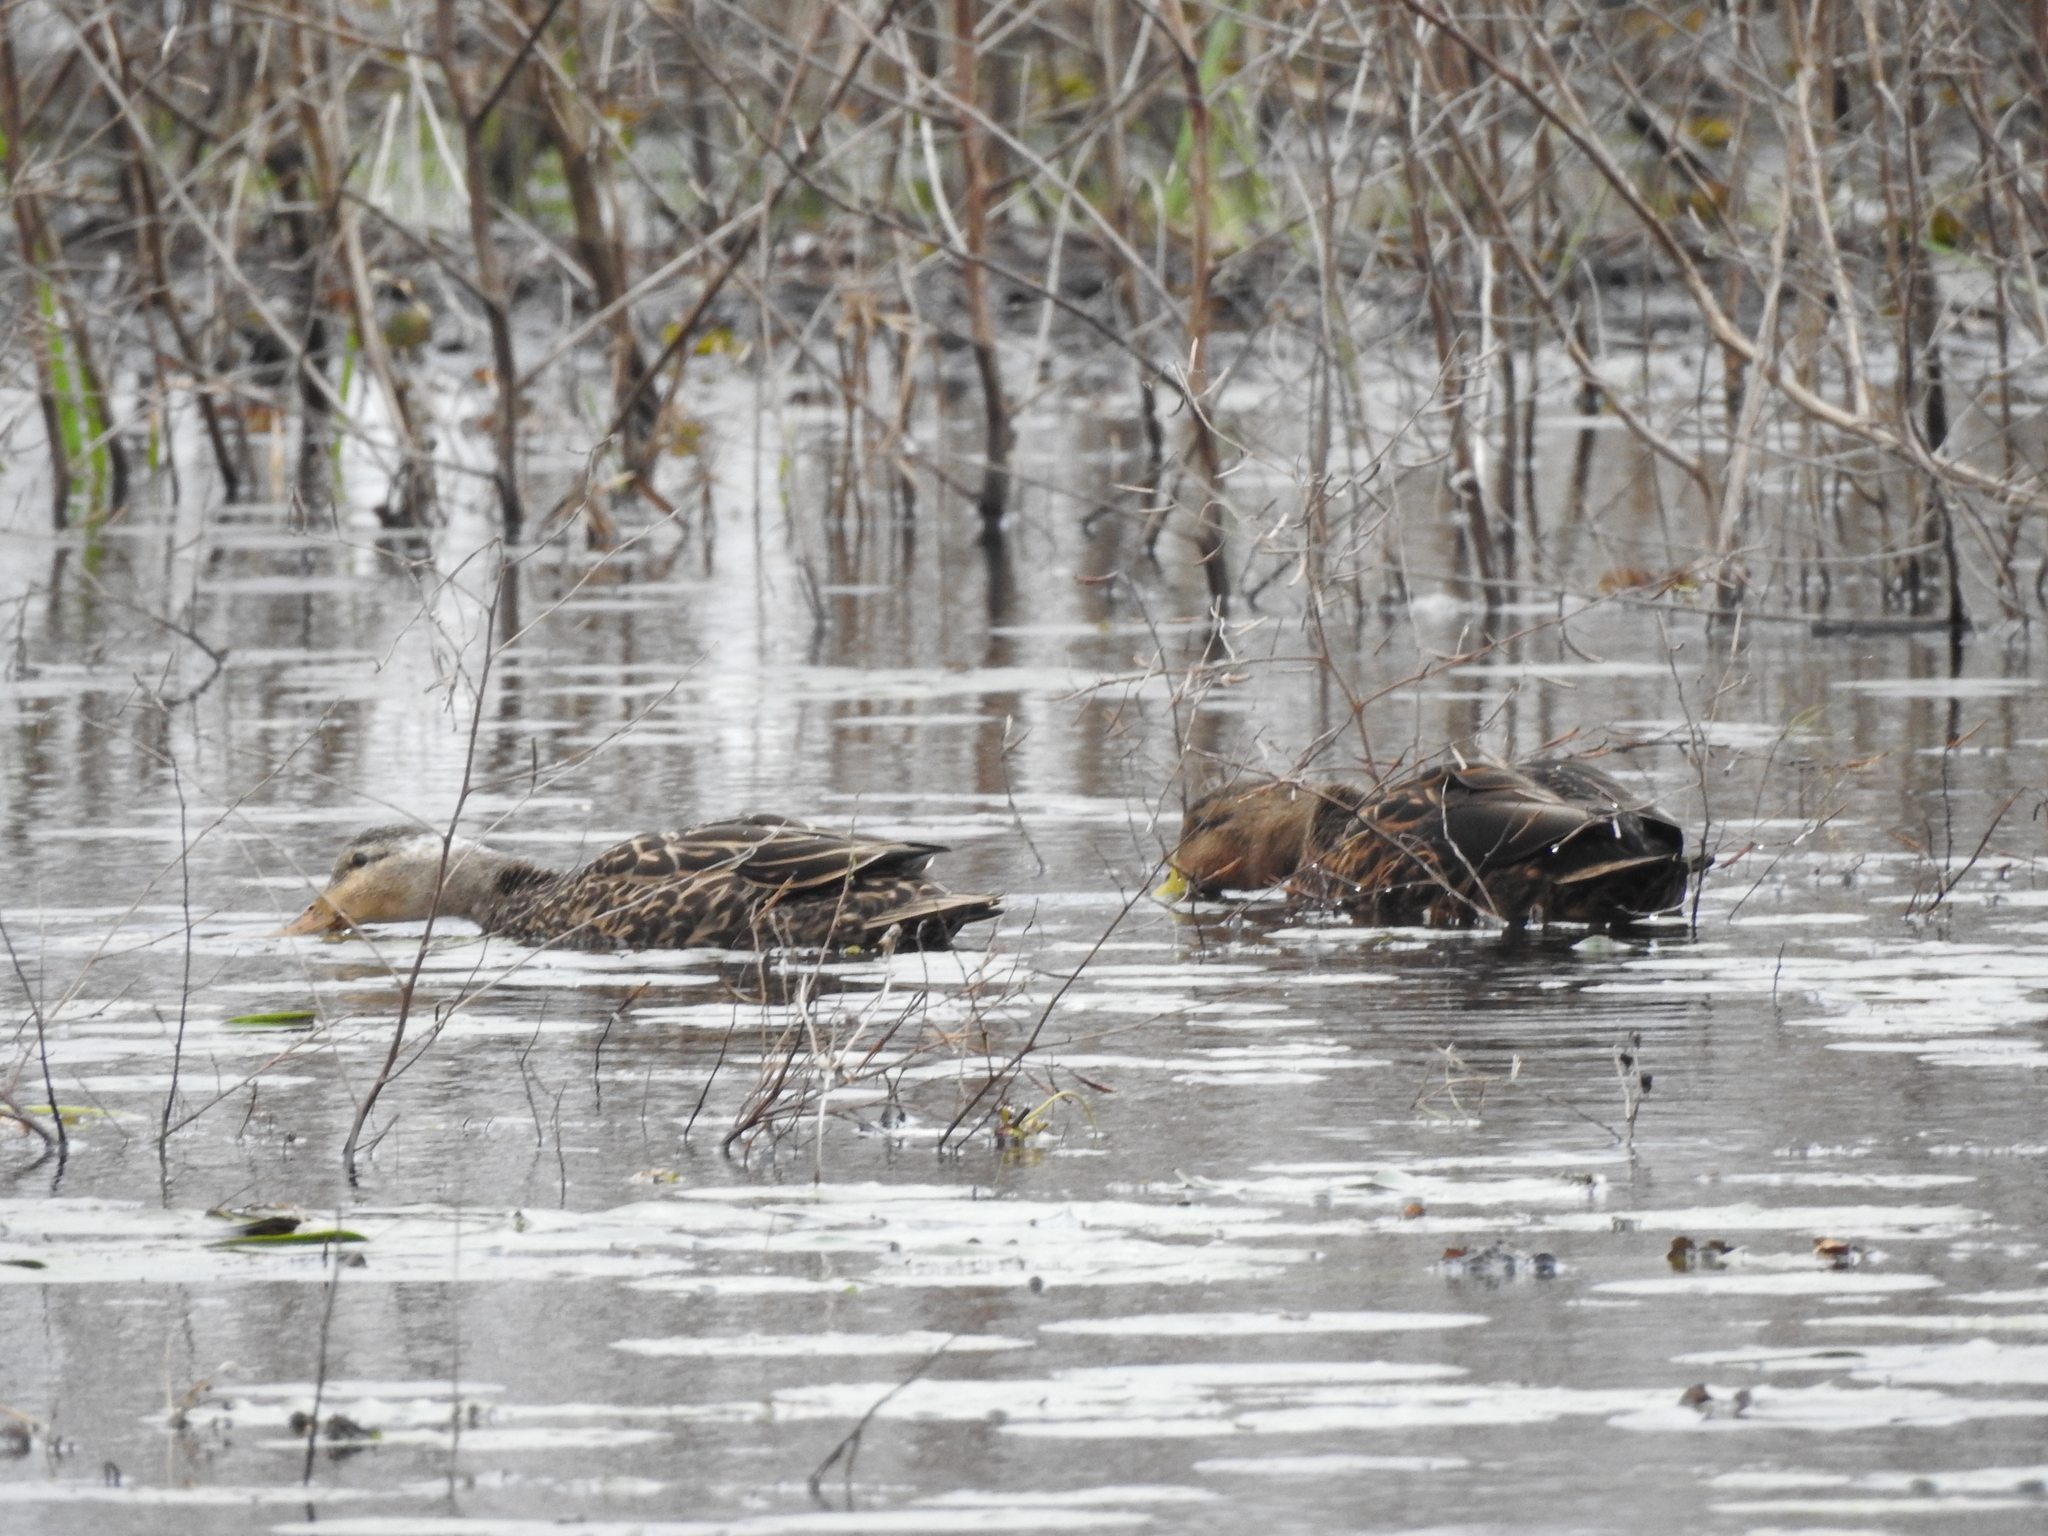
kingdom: Animalia
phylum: Chordata
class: Aves
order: Anseriformes
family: Anatidae
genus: Anas
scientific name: Anas fulvigula
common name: Mottled duck
